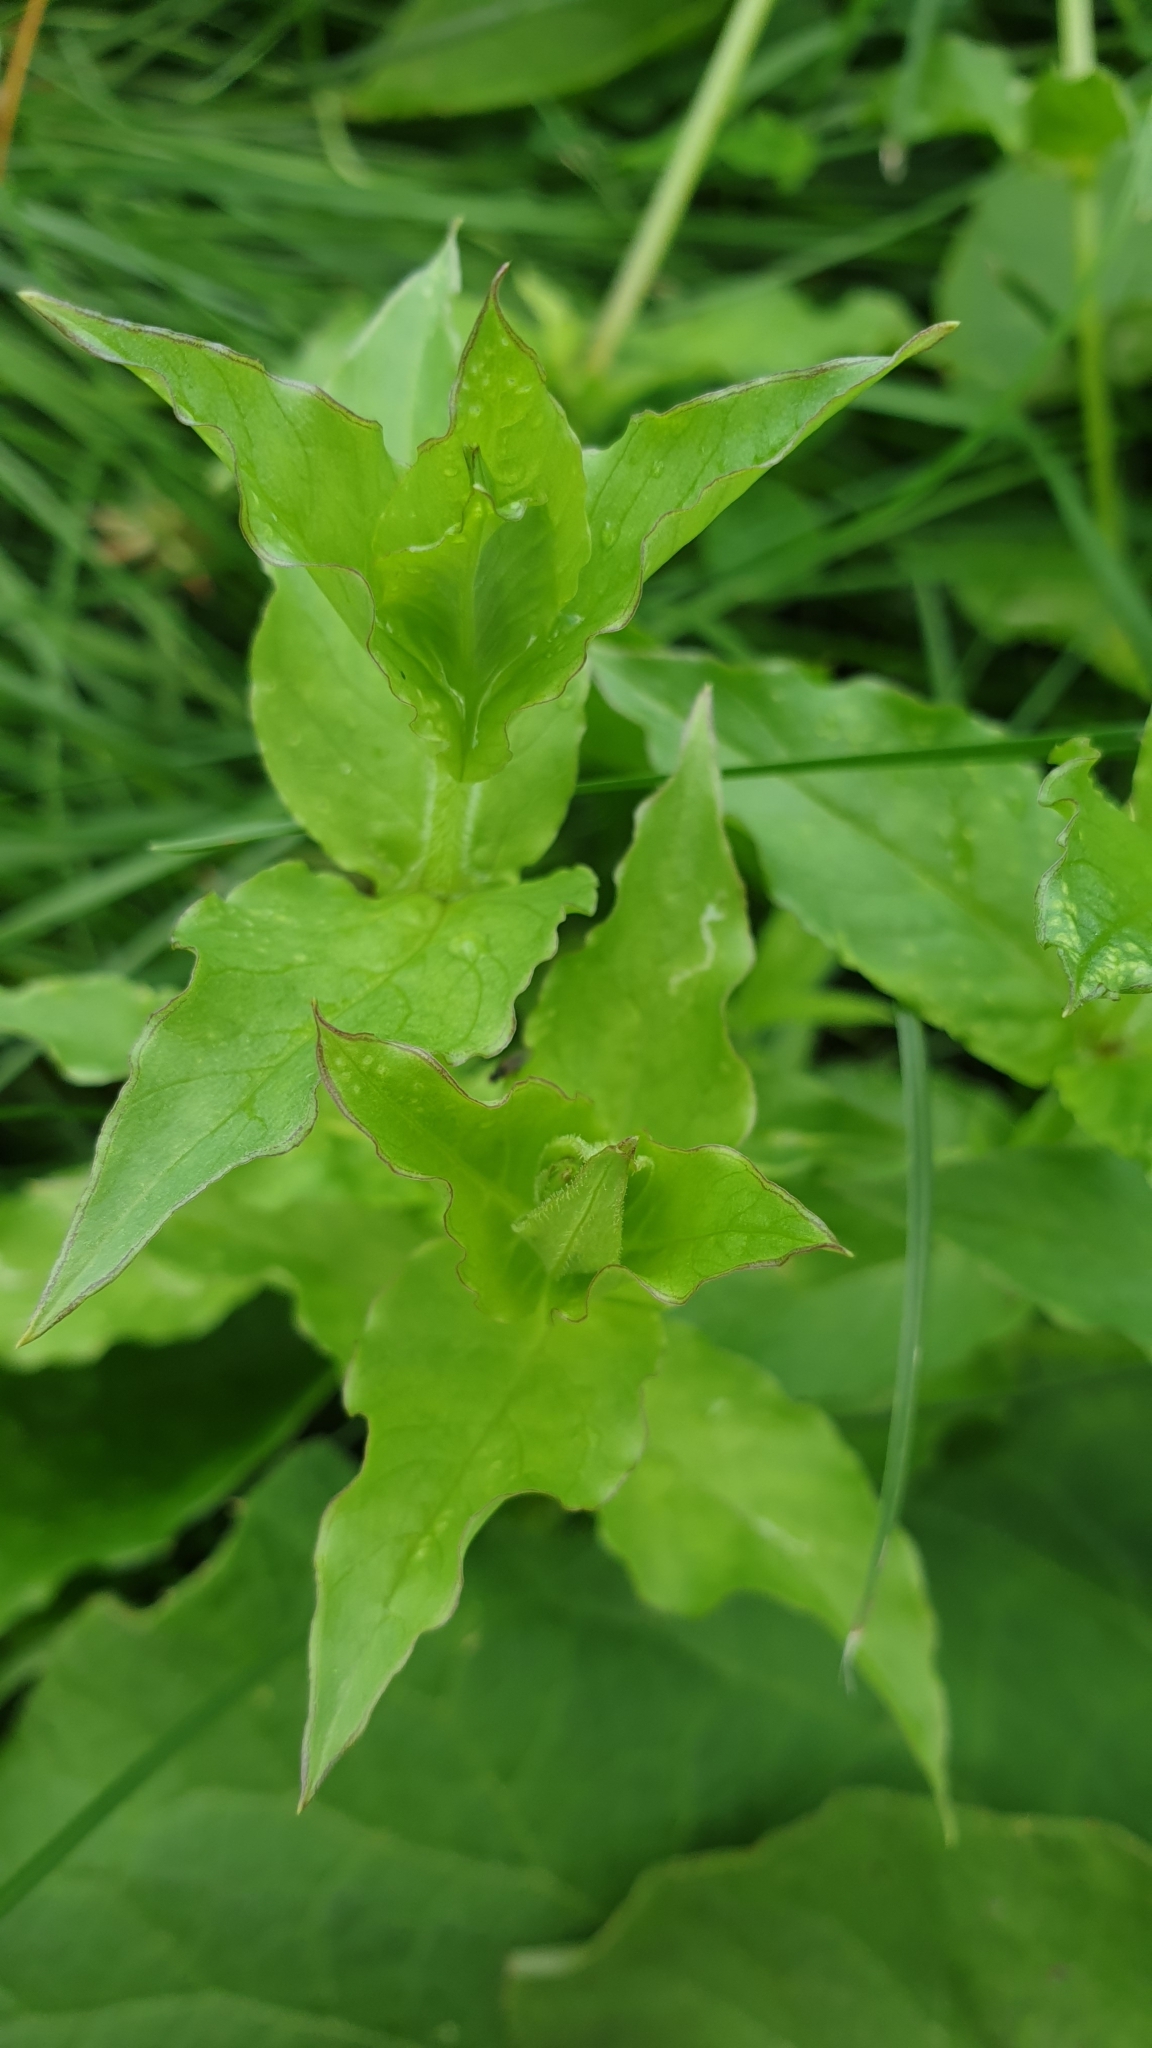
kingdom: Plantae
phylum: Tracheophyta
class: Magnoliopsida
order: Caryophyllales
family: Caryophyllaceae
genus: Stellaria
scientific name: Stellaria aquatica
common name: Water chickweed
